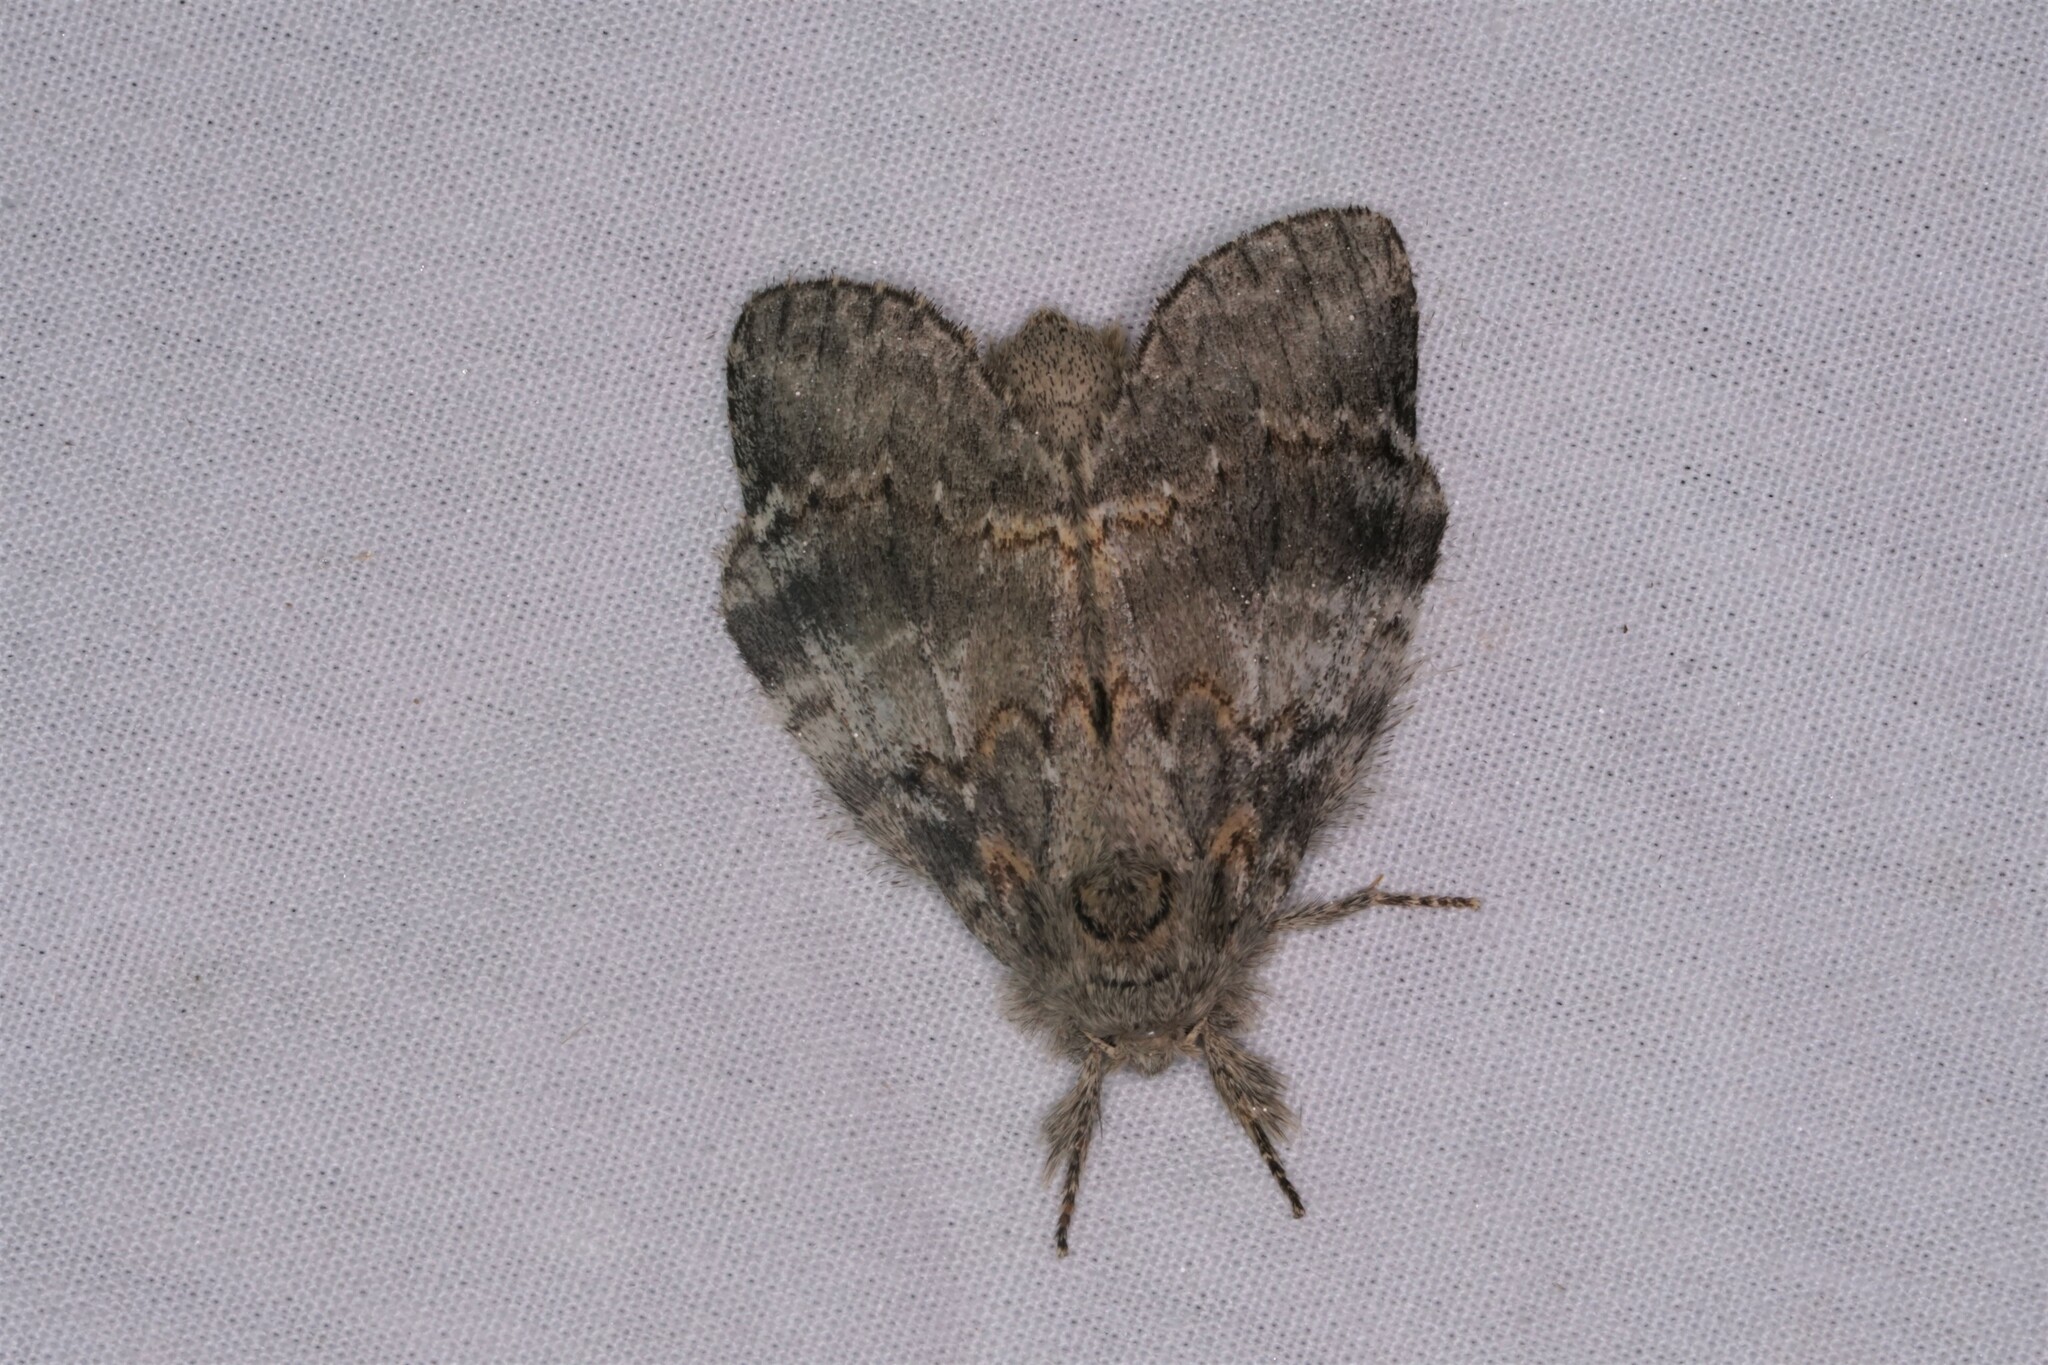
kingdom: Animalia
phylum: Arthropoda
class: Insecta
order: Lepidoptera
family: Notodontidae
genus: Peridea
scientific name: Peridea angulosa
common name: Angulose prominent
